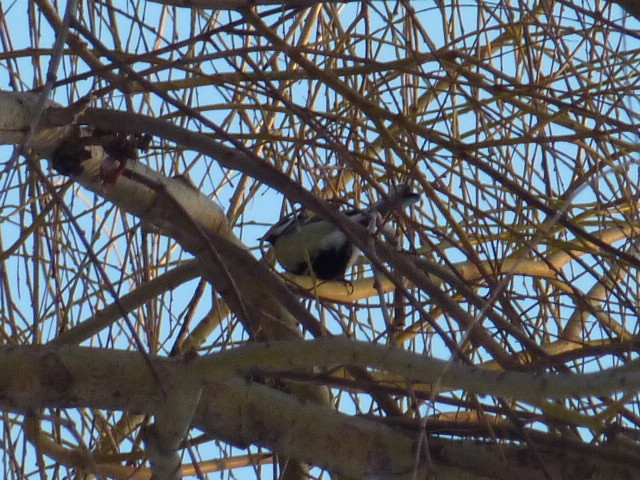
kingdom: Animalia
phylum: Chordata
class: Aves
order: Passeriformes
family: Paridae
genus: Parus
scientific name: Parus major
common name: Great tit
